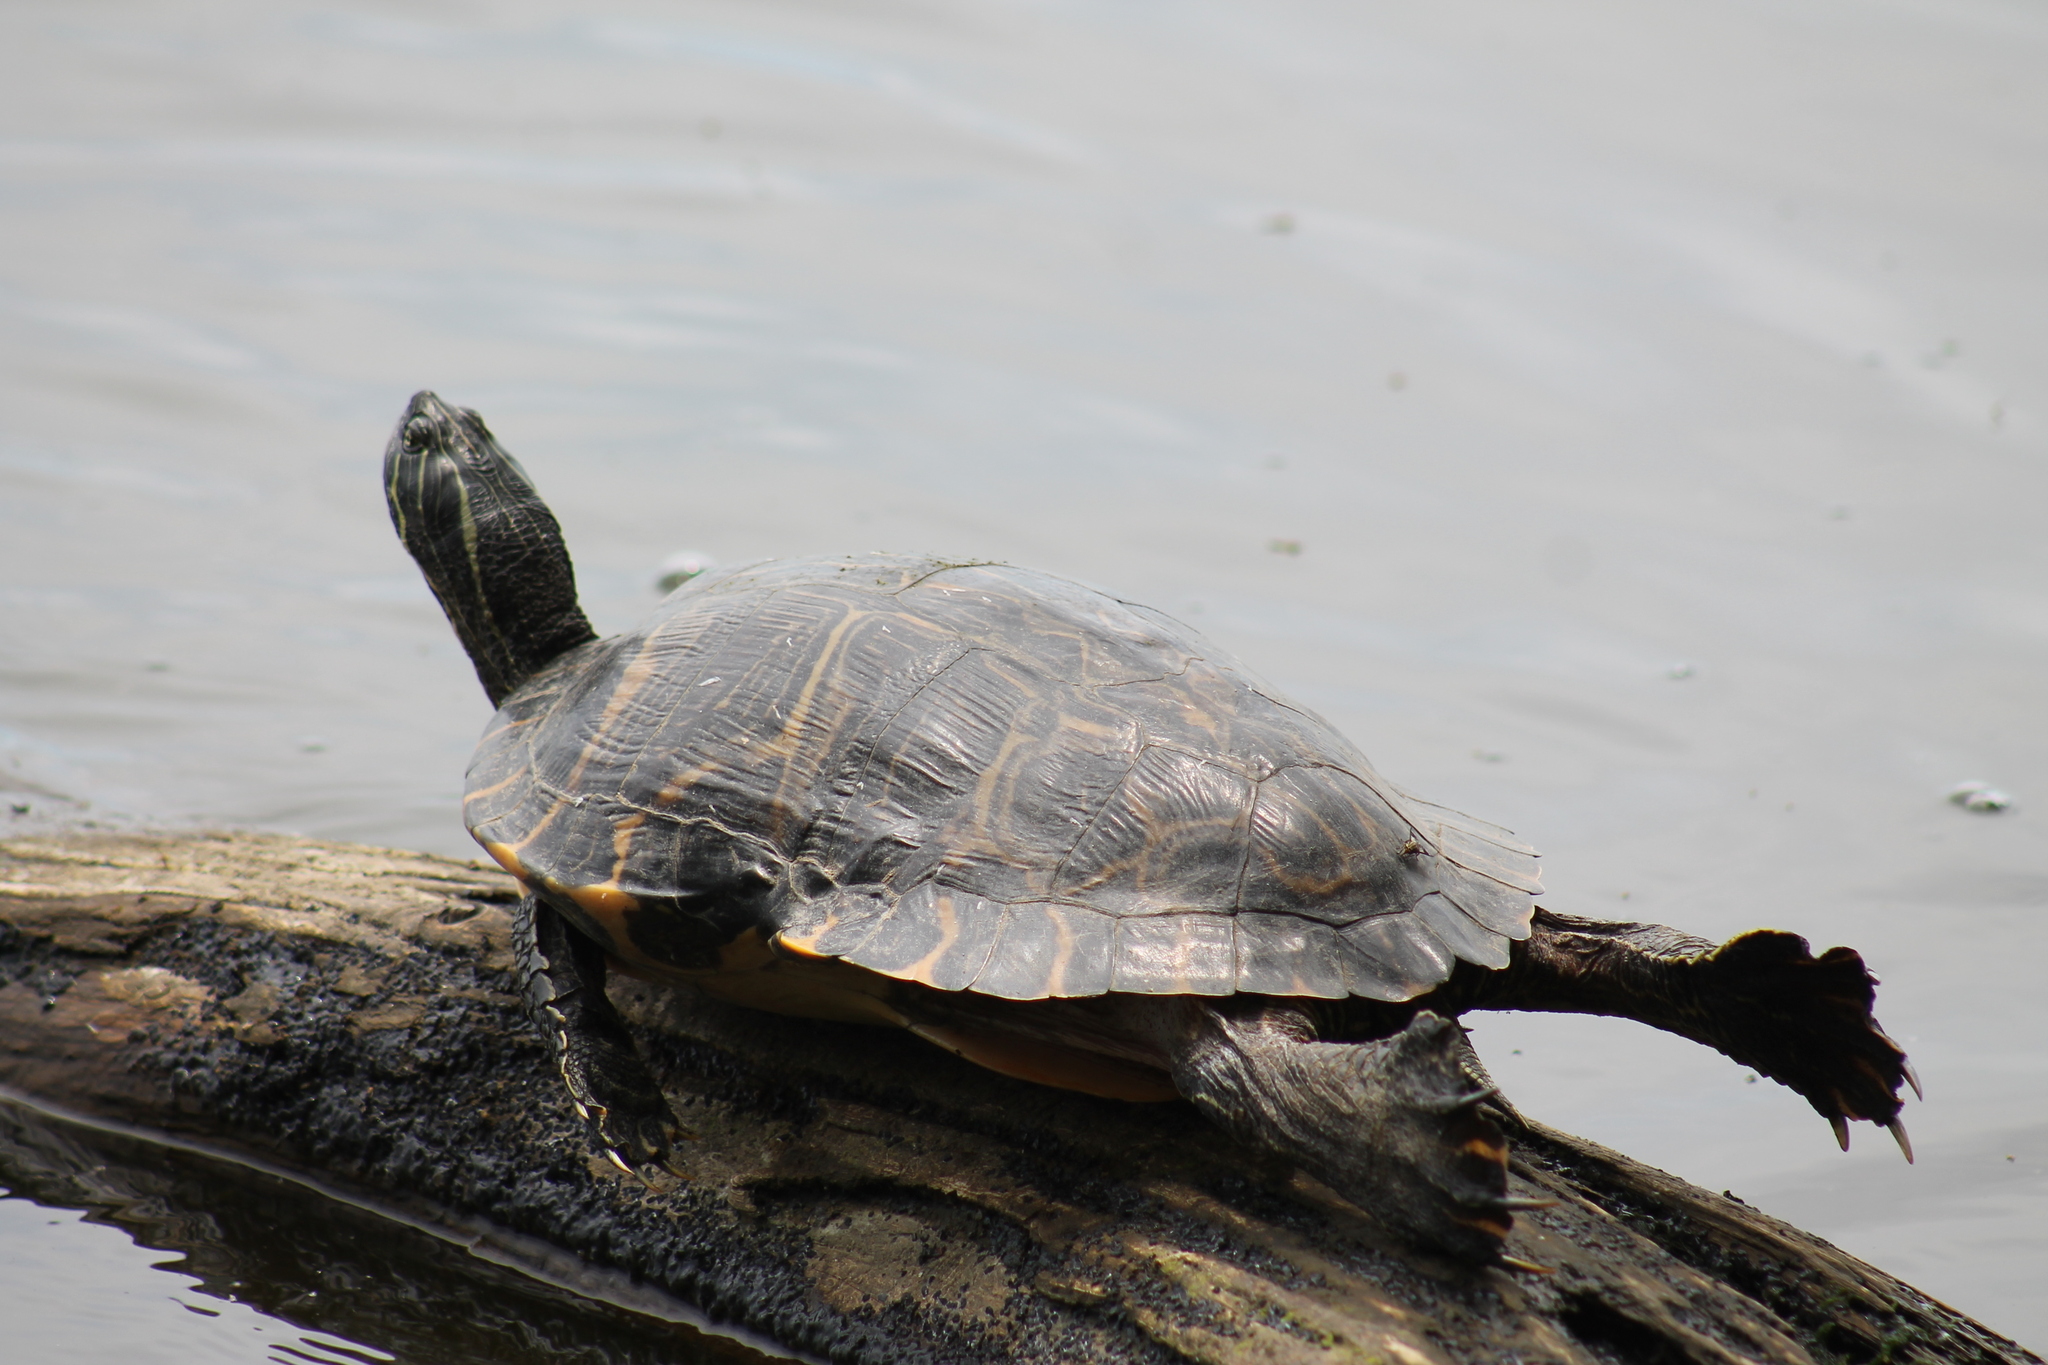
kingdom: Animalia
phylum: Chordata
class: Testudines
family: Emydidae
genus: Pseudemys
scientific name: Pseudemys concinna
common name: Eastern river cooter
